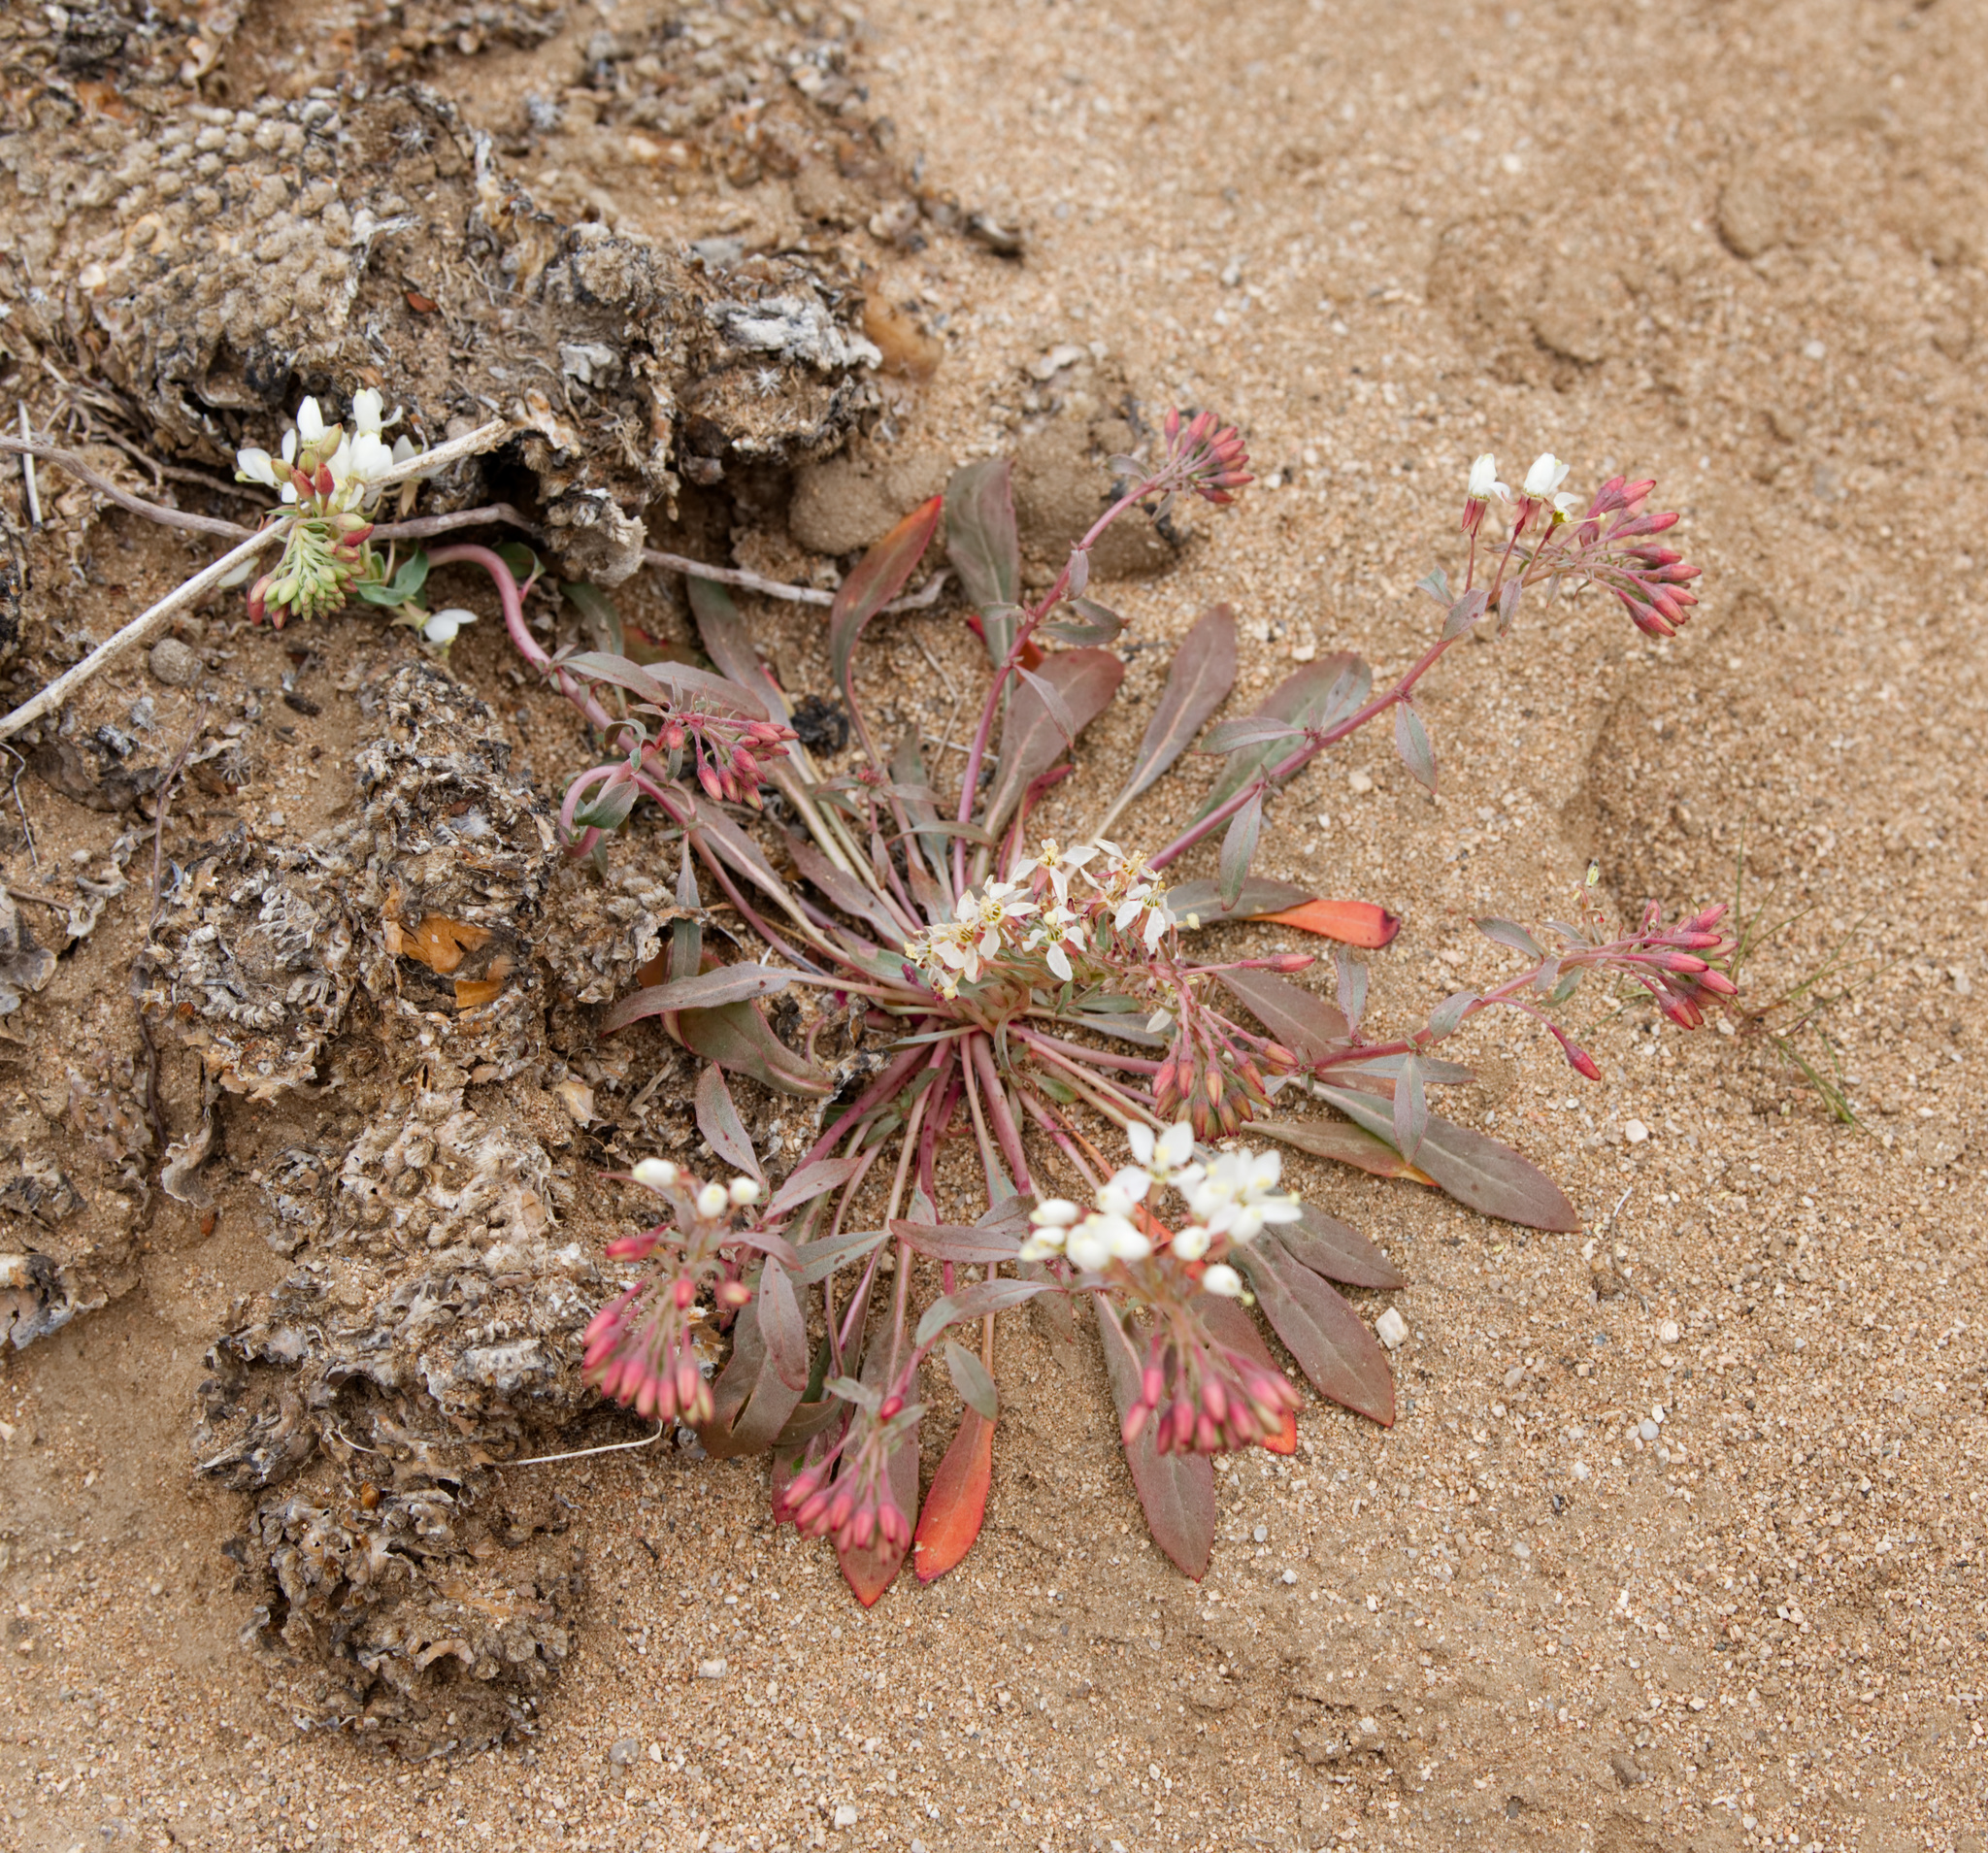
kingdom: Plantae
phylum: Tracheophyta
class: Magnoliopsida
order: Myrtales
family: Onagraceae
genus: Eremothera
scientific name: Eremothera boothii
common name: Booth's evening primrose
